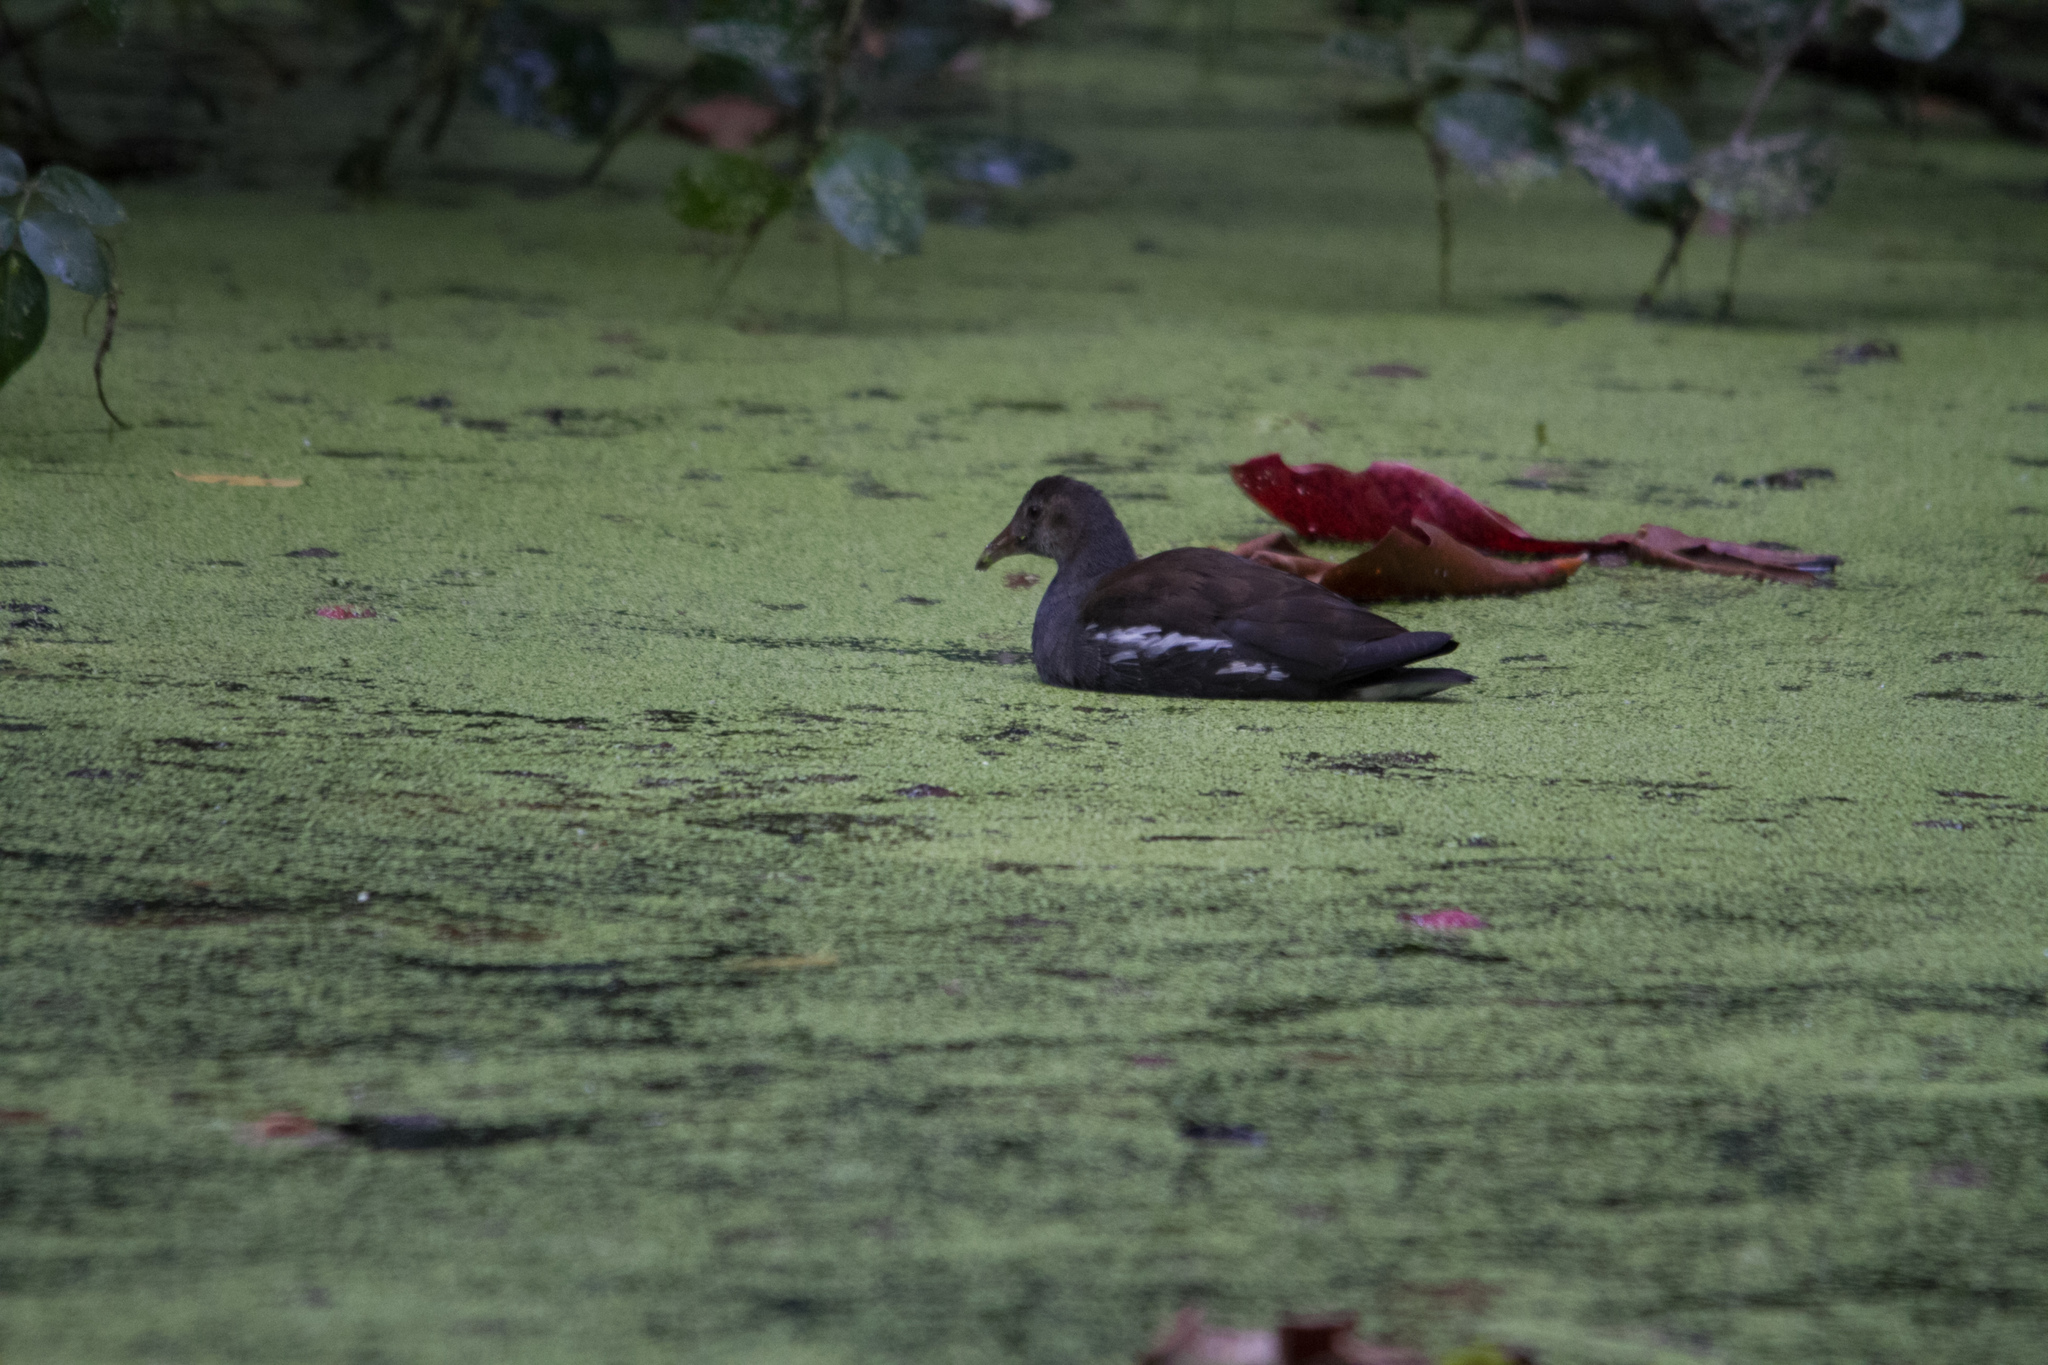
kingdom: Animalia
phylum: Chordata
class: Aves
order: Gruiformes
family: Rallidae
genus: Gallinula
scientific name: Gallinula chloropus
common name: Common moorhen
